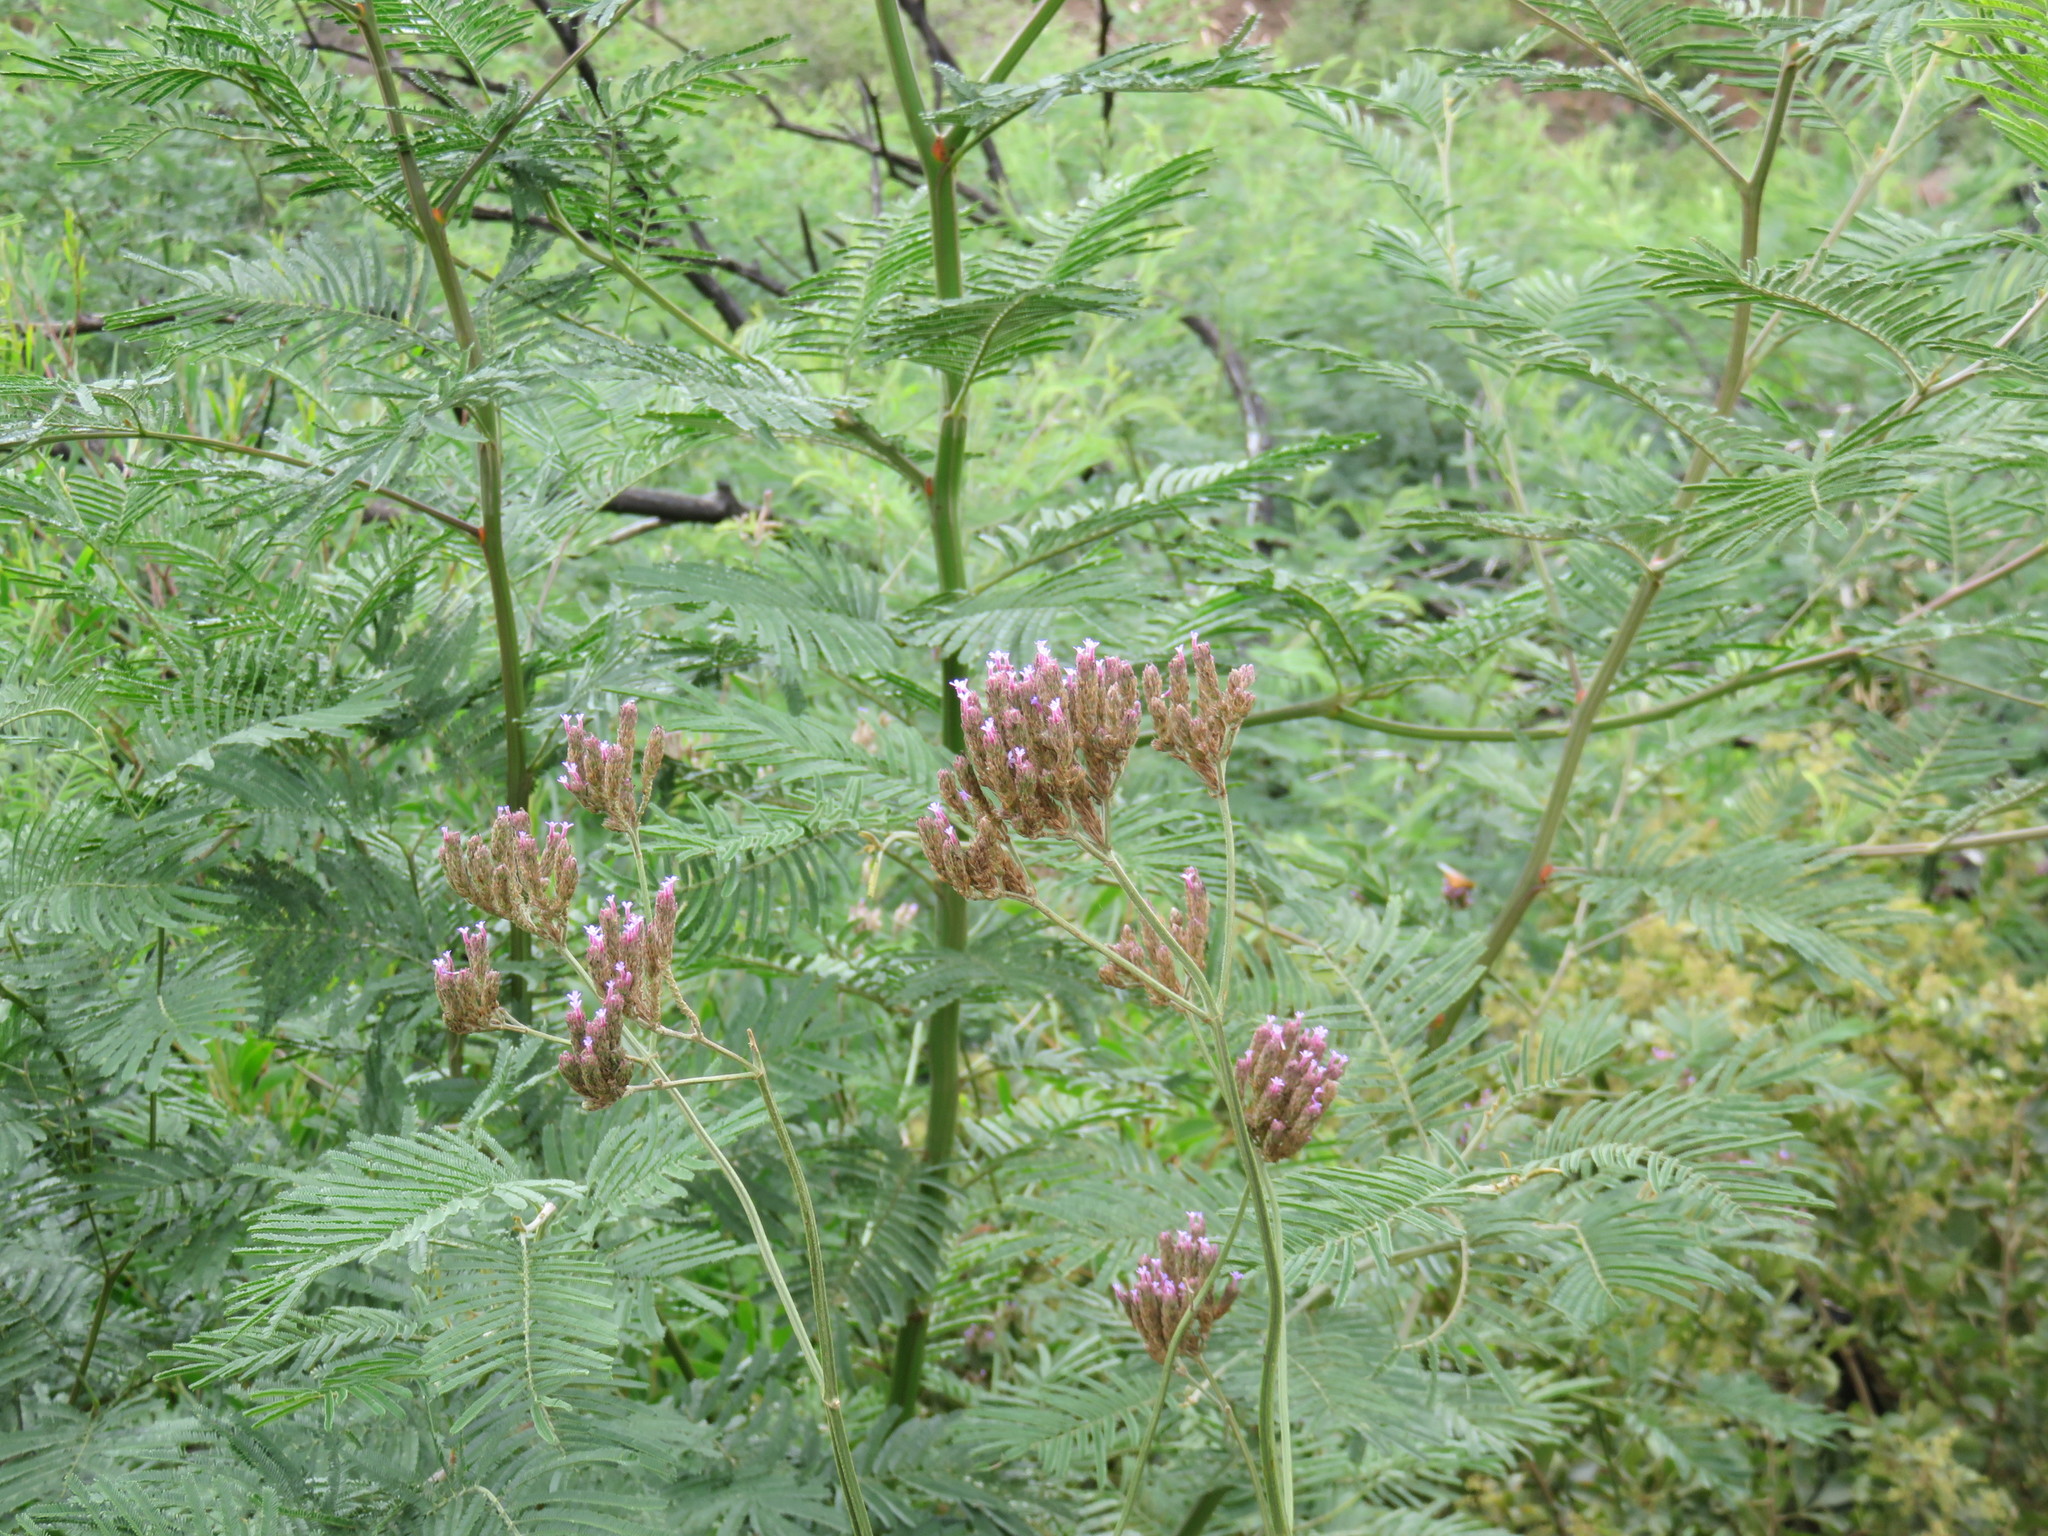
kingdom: Plantae
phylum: Tracheophyta
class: Magnoliopsida
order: Lamiales
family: Verbenaceae
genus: Verbena
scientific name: Verbena bonariensis
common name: Purpletop vervain
